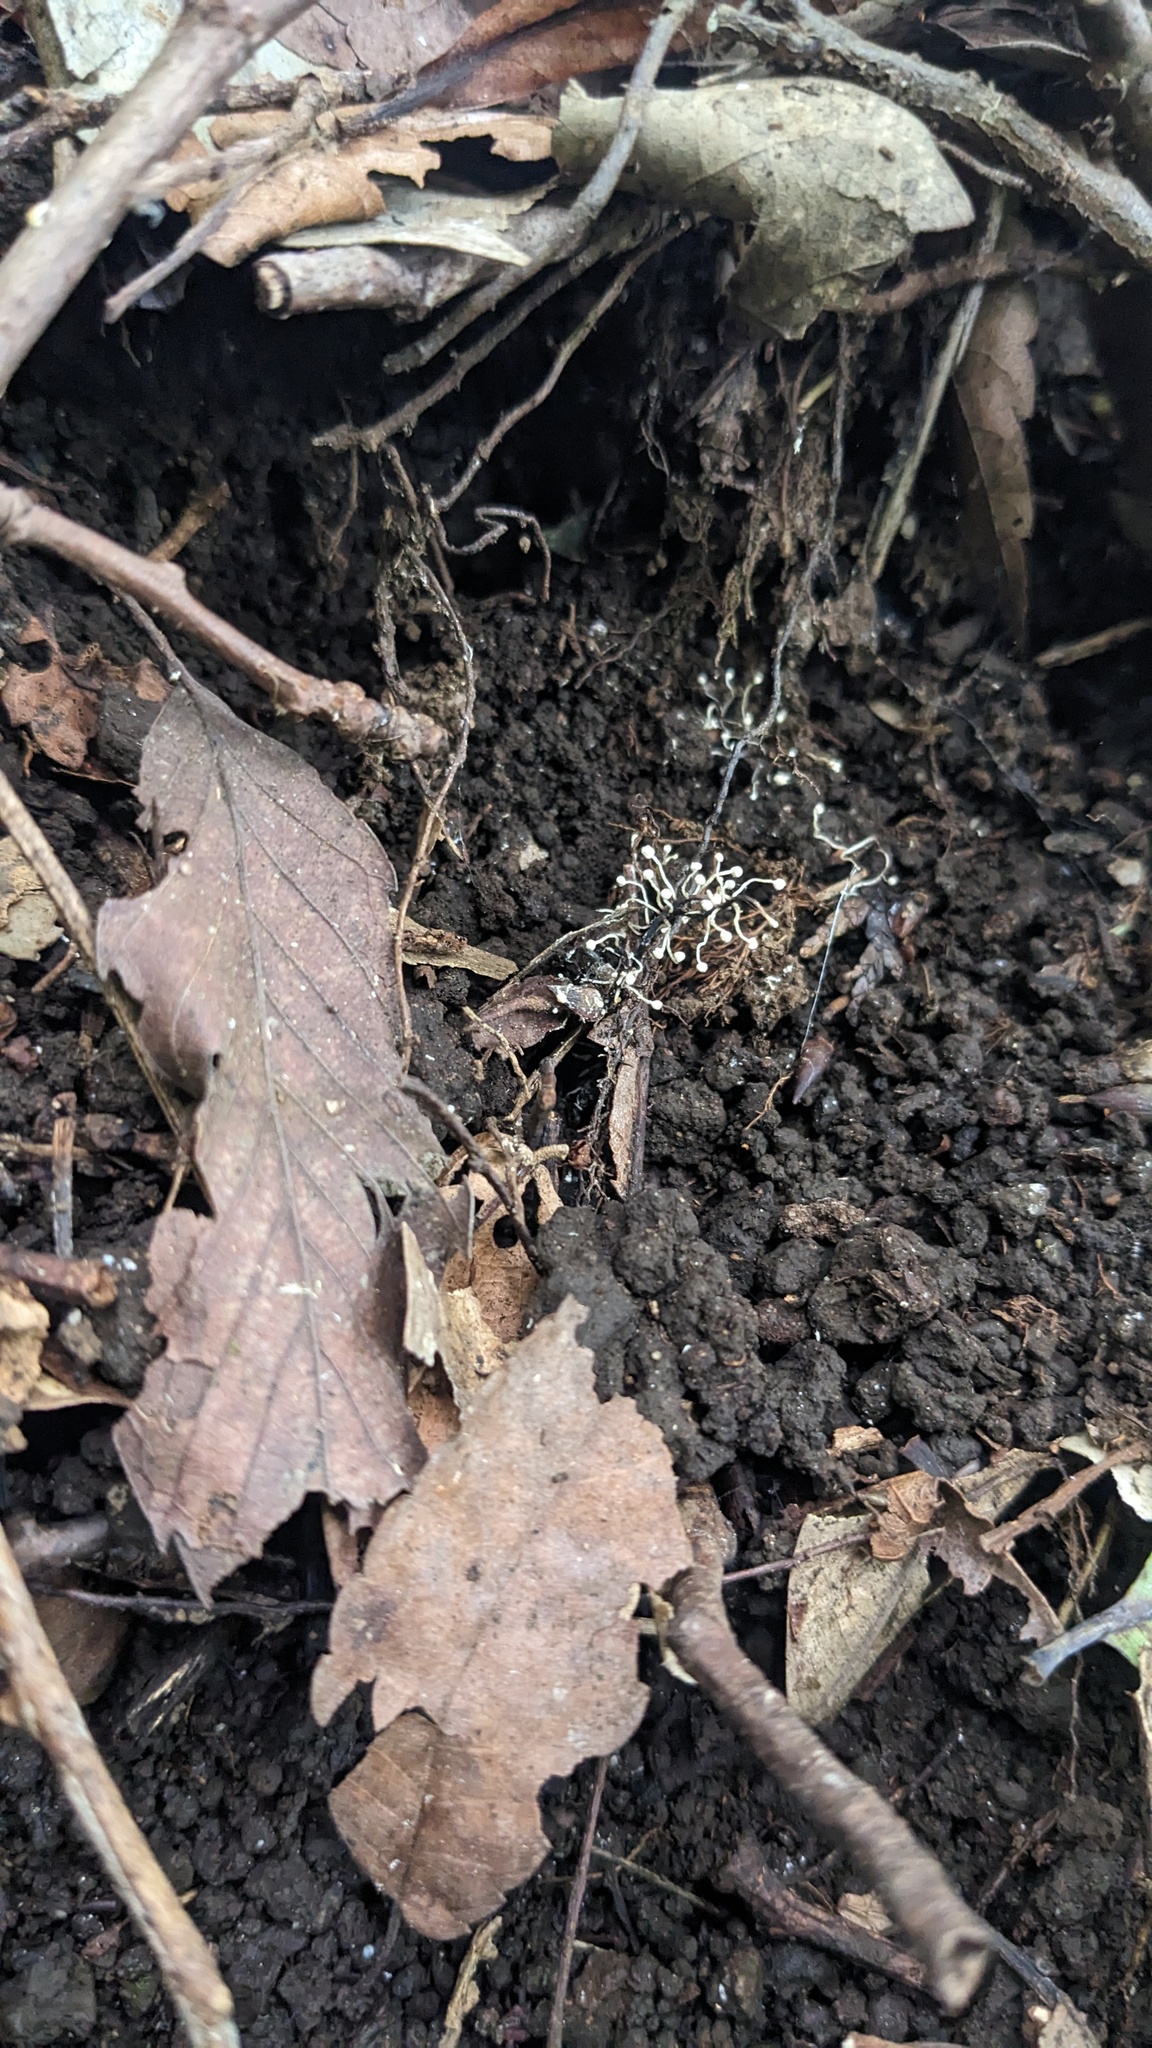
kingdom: Fungi
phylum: Ascomycota
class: Sordariomycetes
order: Hypocreales
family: Ophiocordycipitaceae
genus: Ophiocordyceps
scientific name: Ophiocordyceps entomorrhiza
